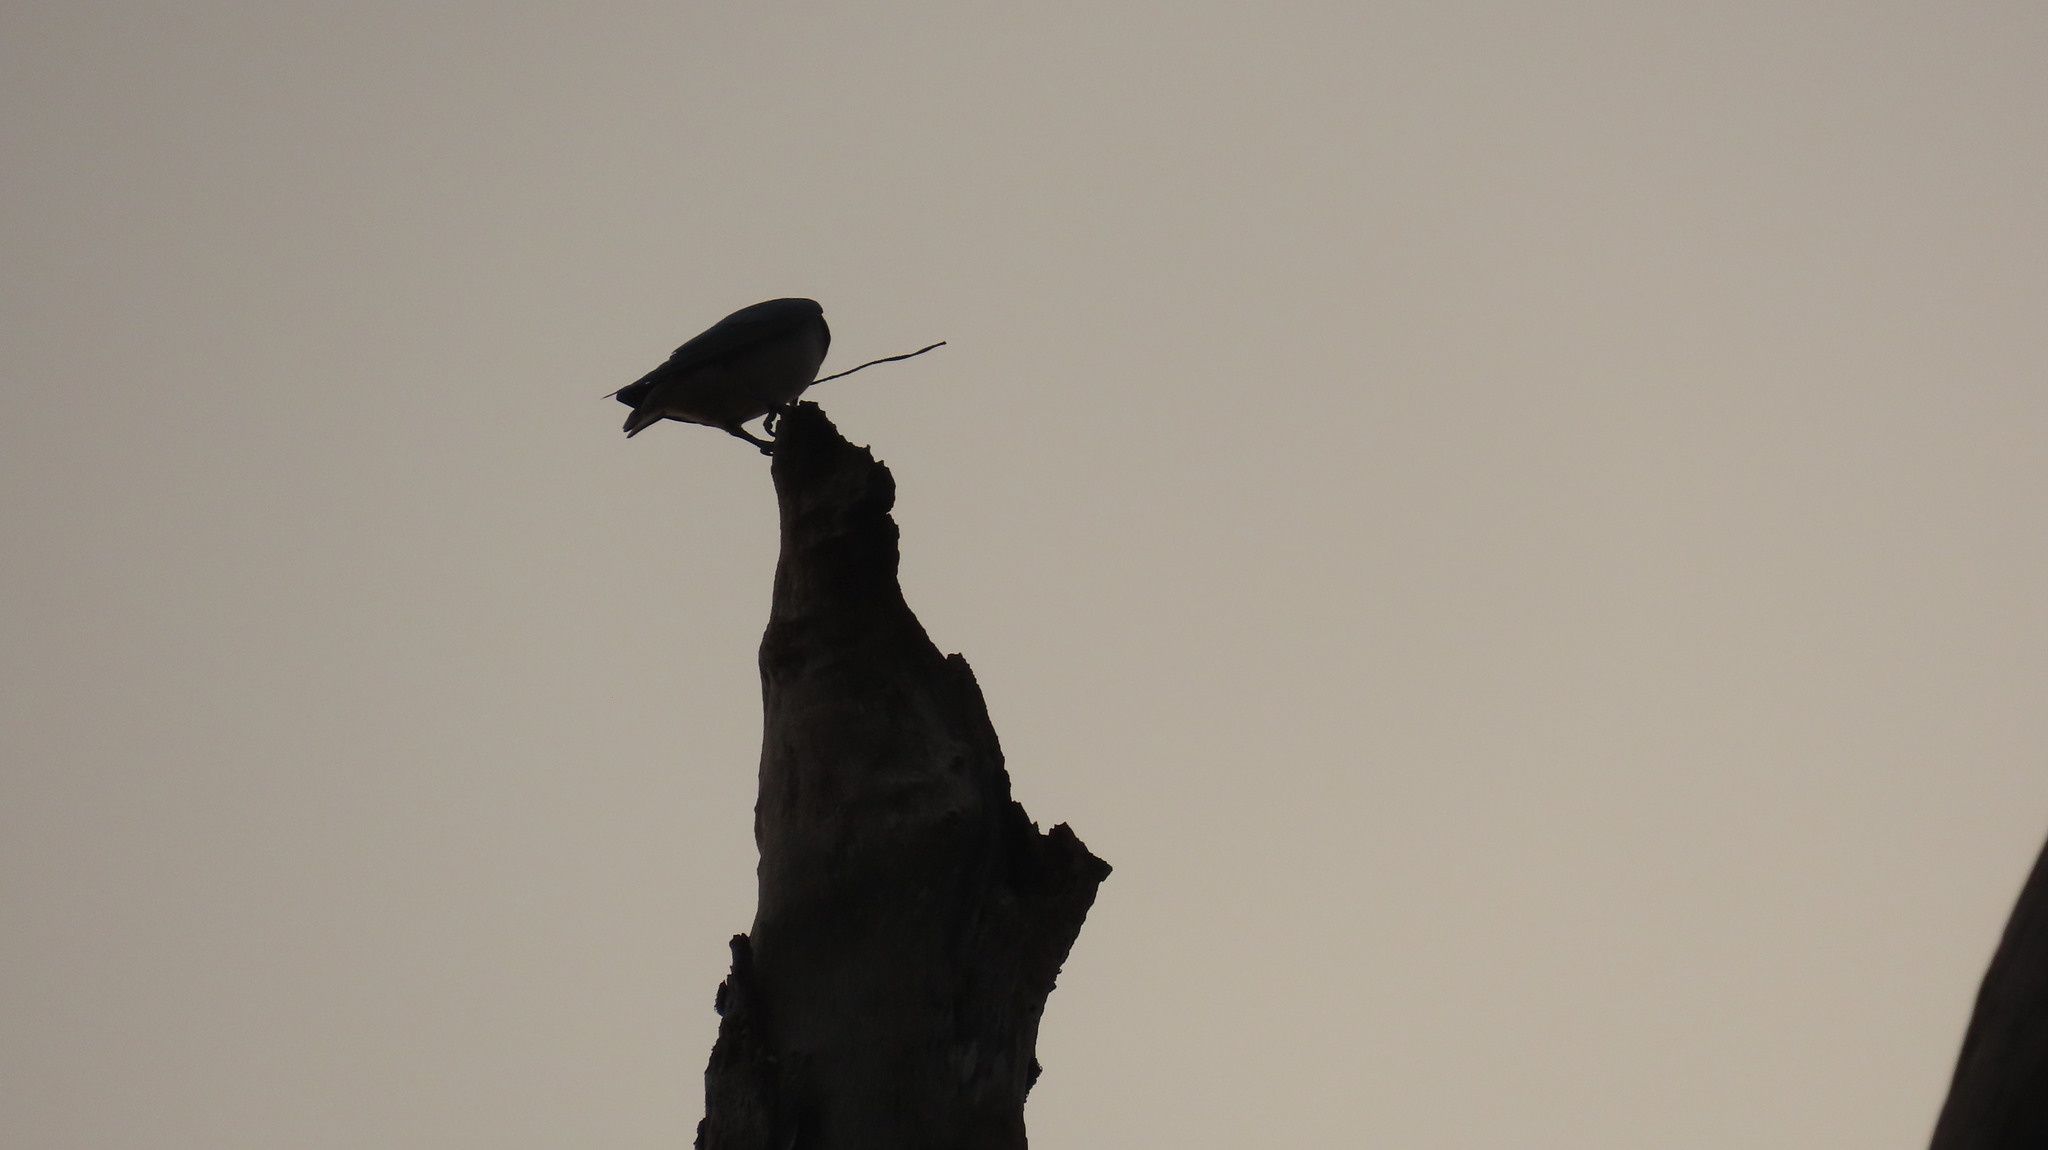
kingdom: Animalia
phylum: Chordata
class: Aves
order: Passeriformes
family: Artamidae
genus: Artamus
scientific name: Artamus fuscus
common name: Ashy woodswallow
